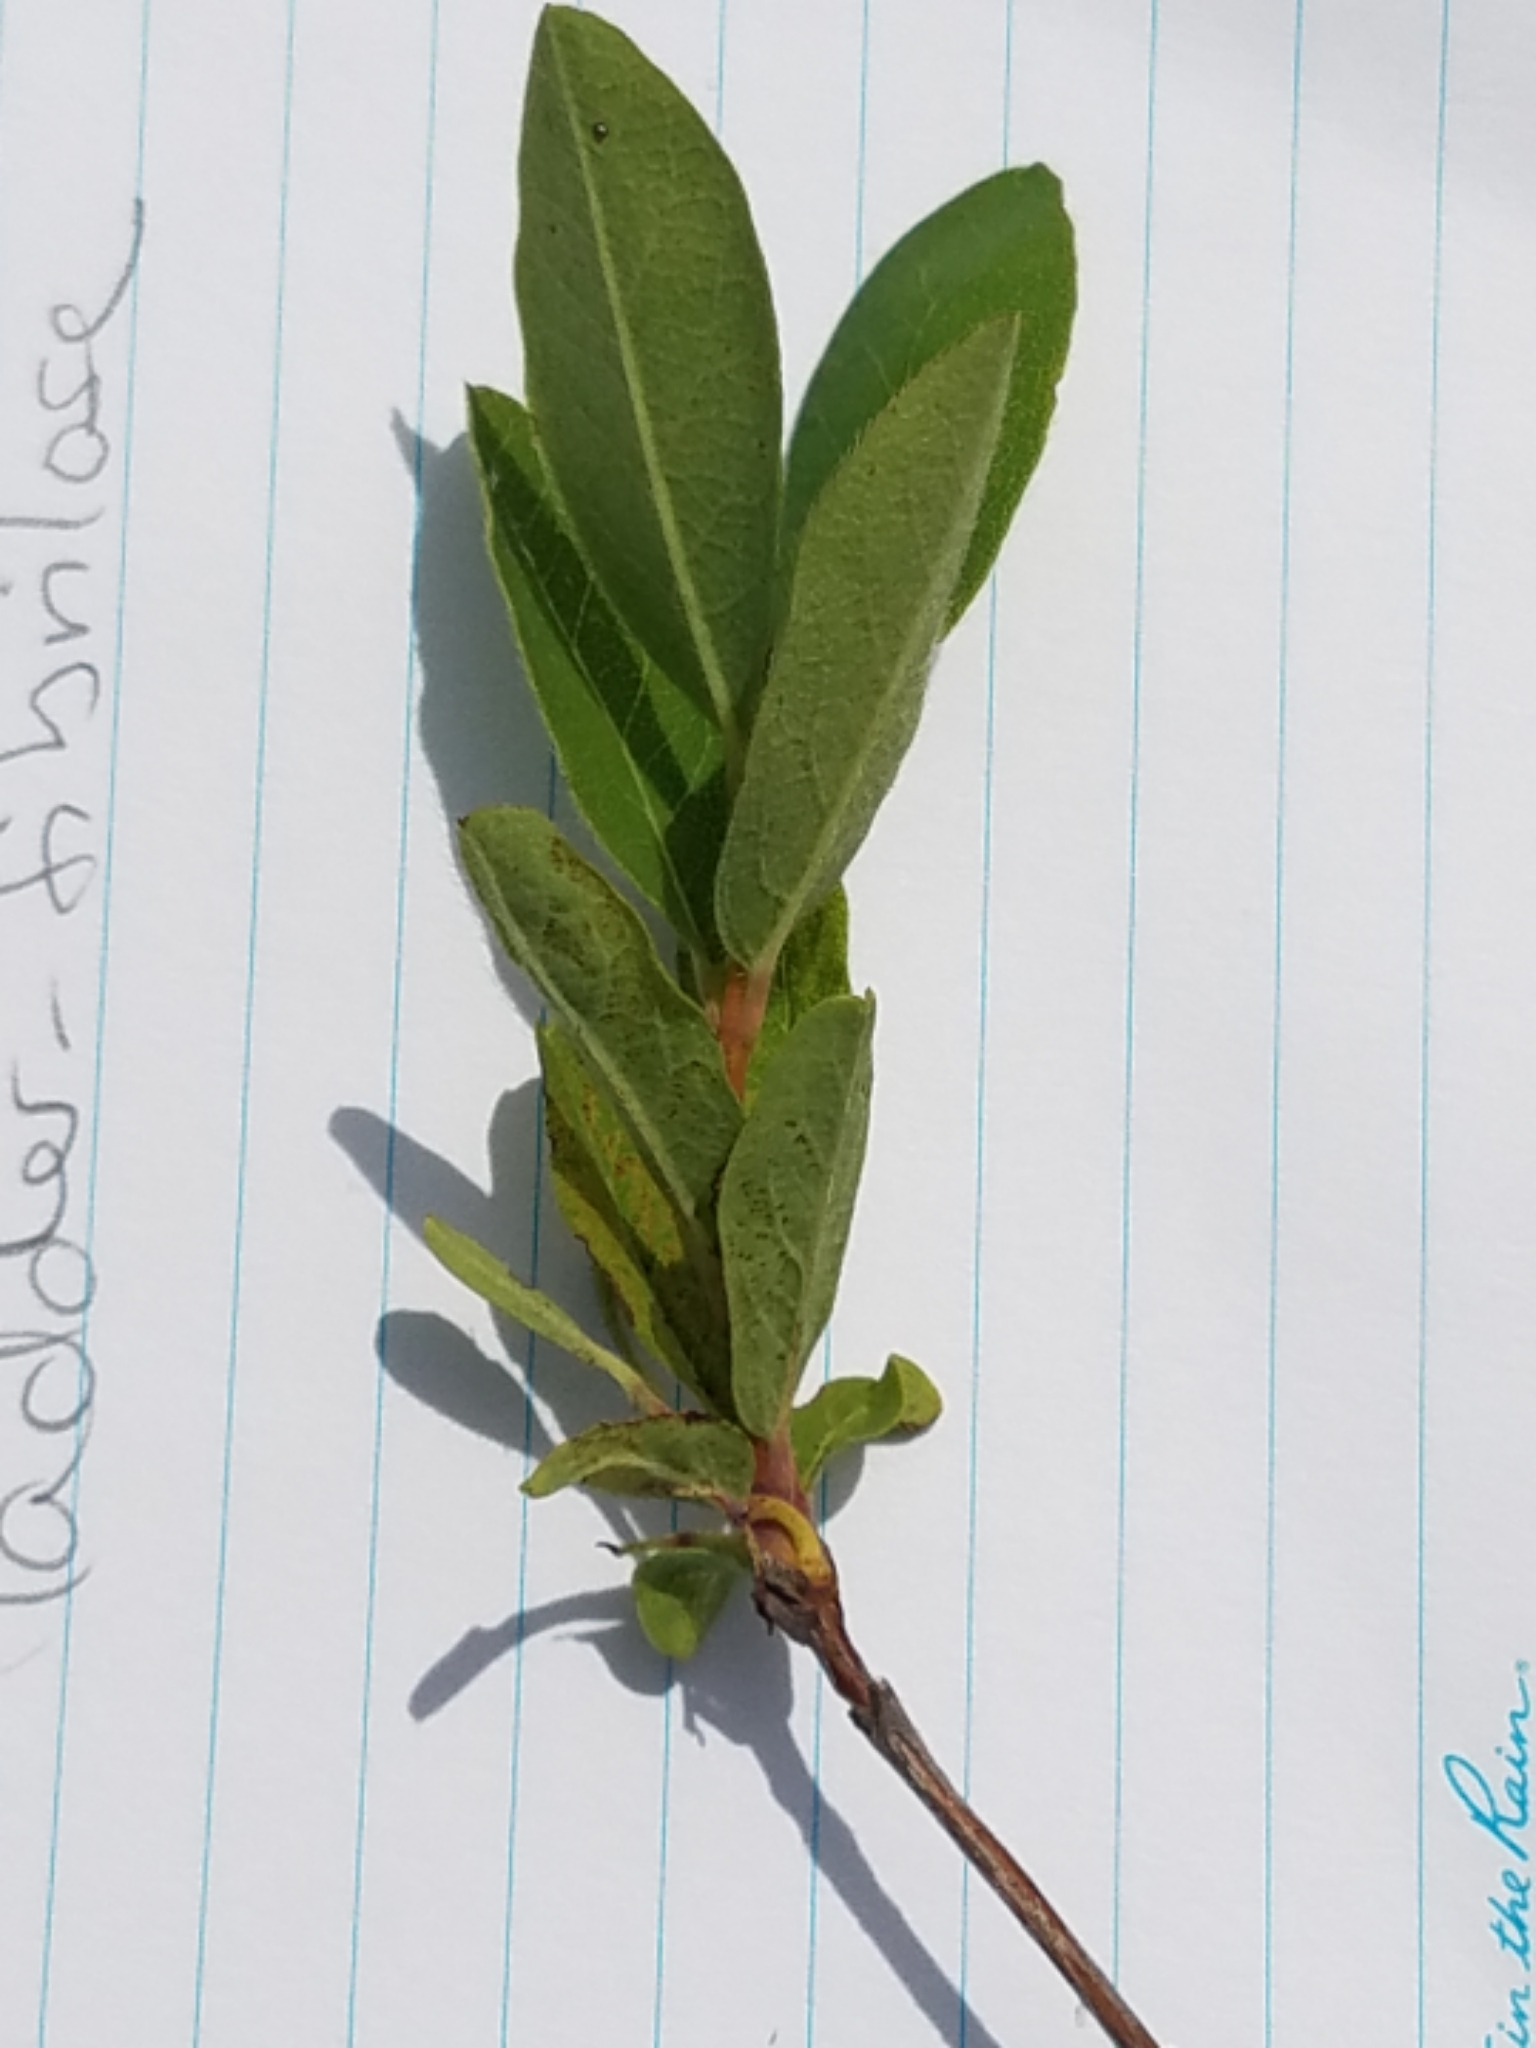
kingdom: Plantae
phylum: Tracheophyta
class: Magnoliopsida
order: Dipsacales
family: Caprifoliaceae
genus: Lonicera
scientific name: Lonicera villosa
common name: Mountain fly-honeysuckle
